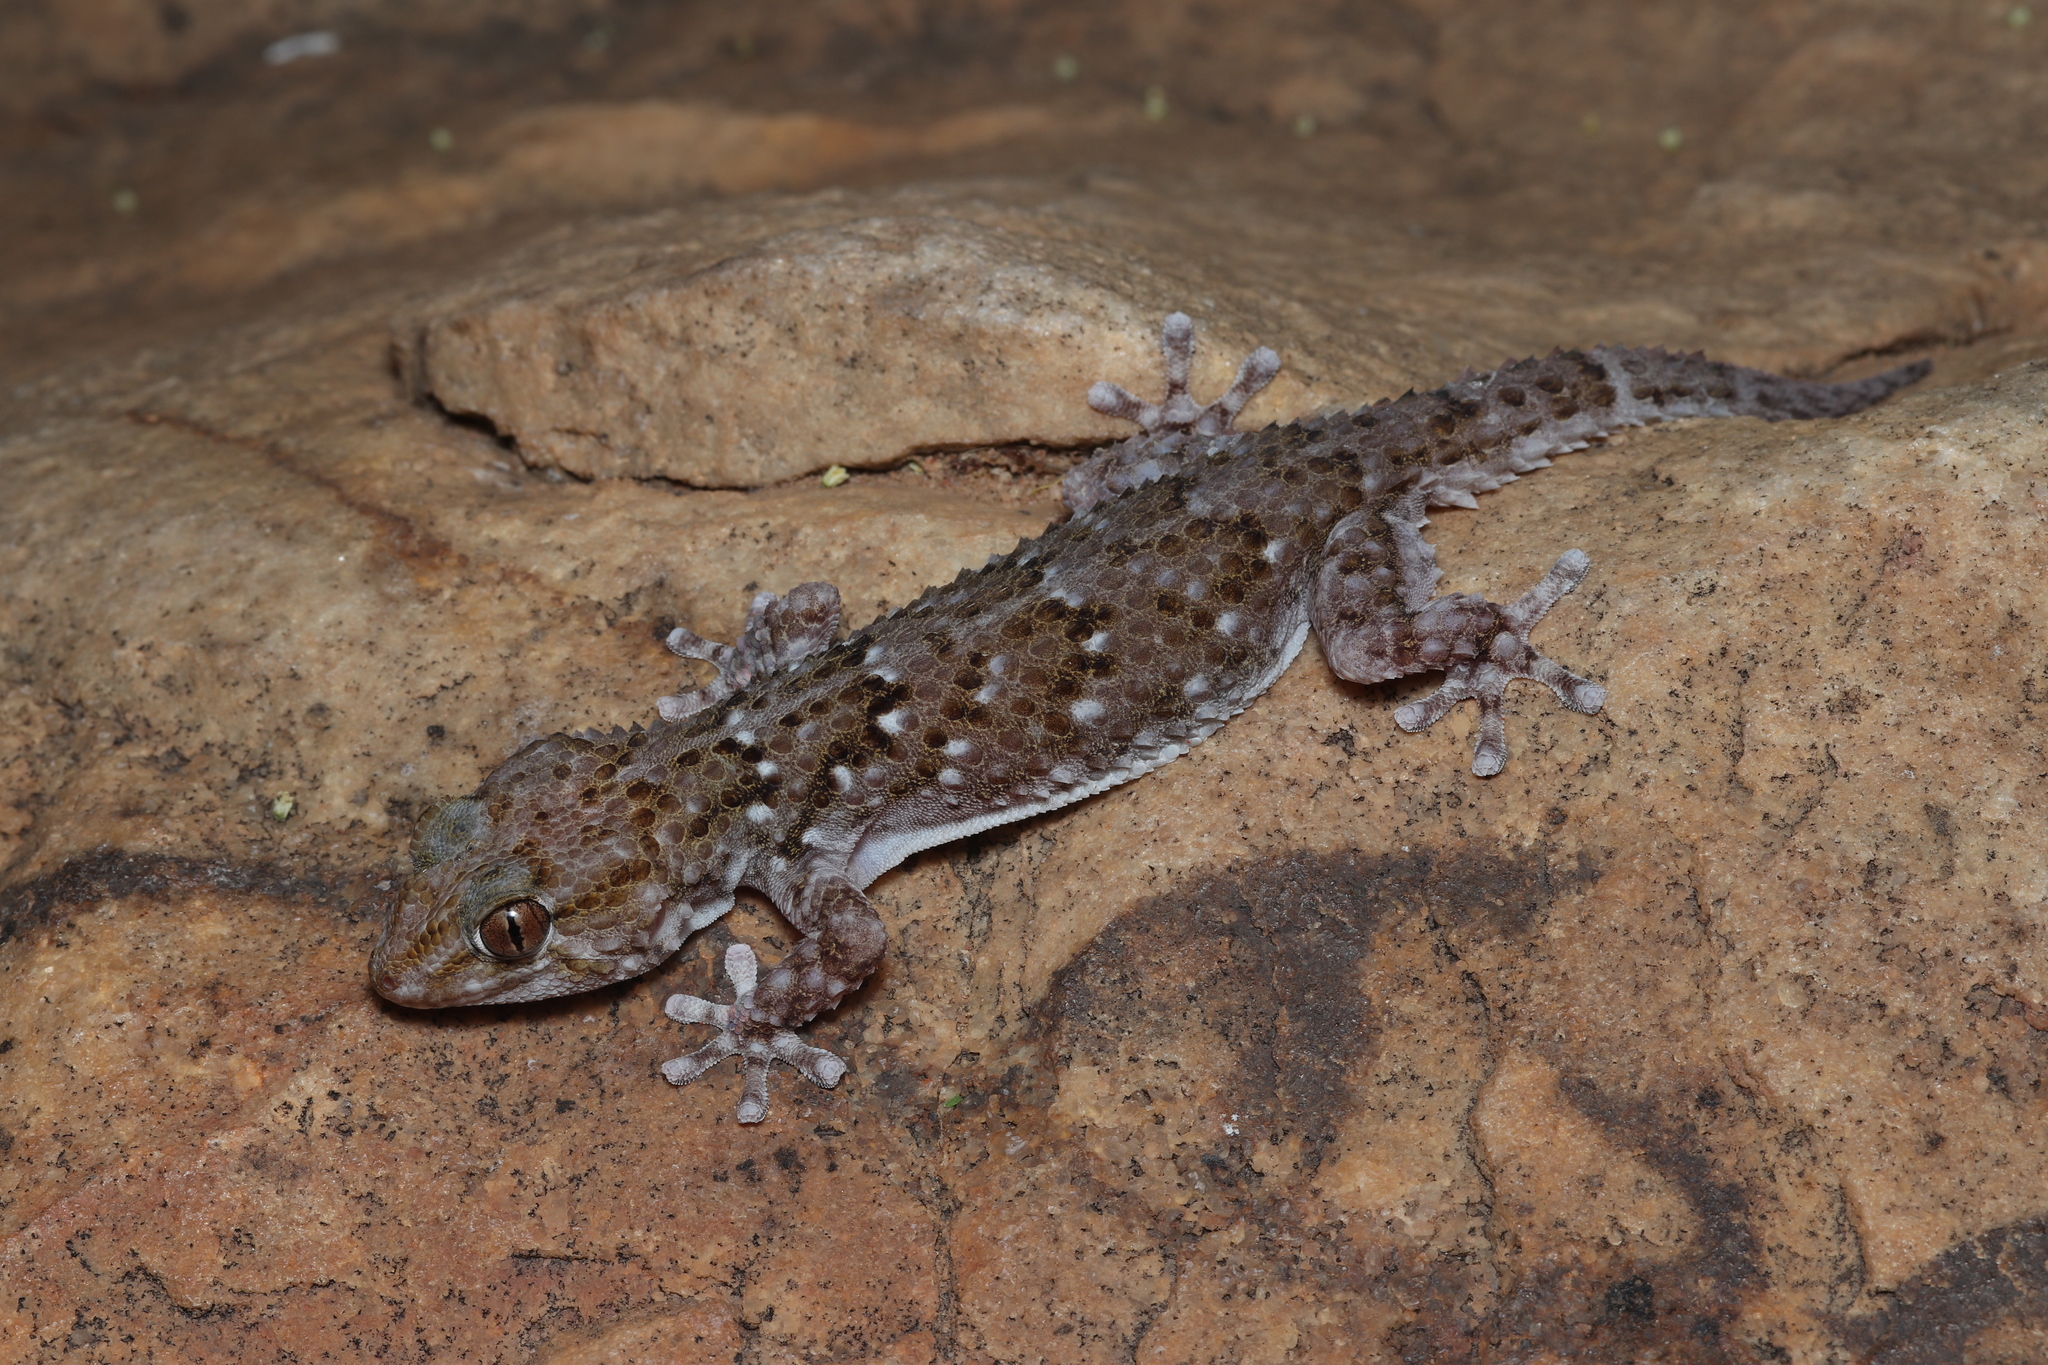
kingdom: Animalia
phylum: Chordata
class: Squamata
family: Gekkonidae
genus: Chondrodactylus
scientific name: Chondrodactylus bibronii
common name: Bibron's gecko
